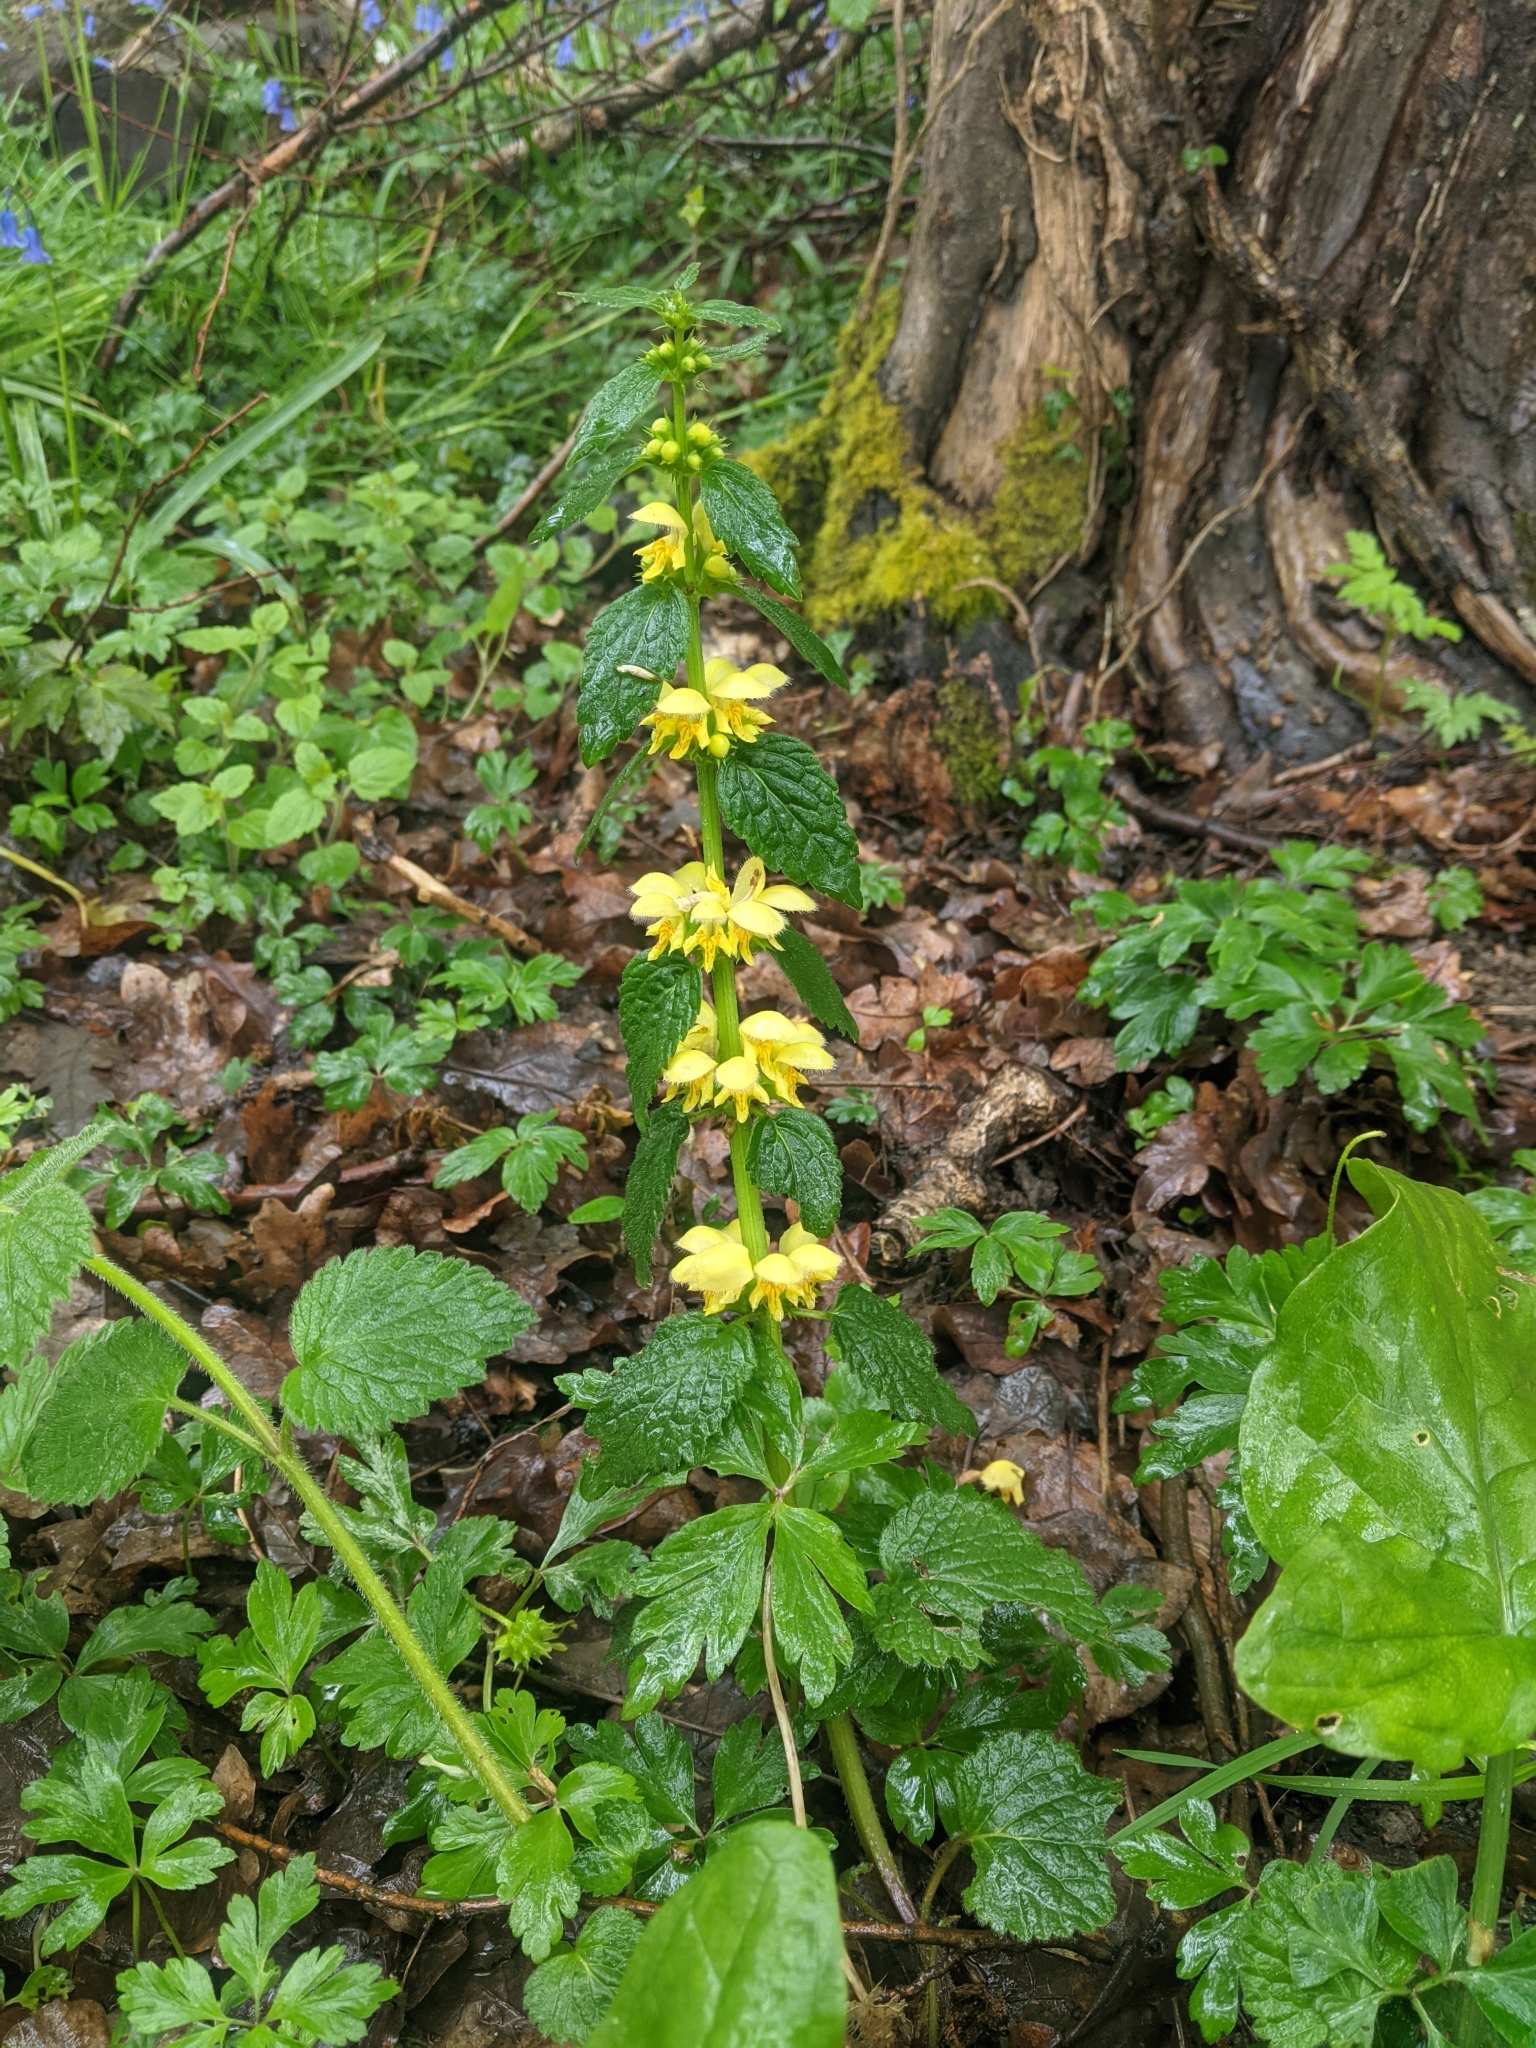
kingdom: Plantae
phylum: Tracheophyta
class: Magnoliopsida
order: Lamiales
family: Lamiaceae
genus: Lamium
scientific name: Lamium galeobdolon
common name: Yellow archangel
